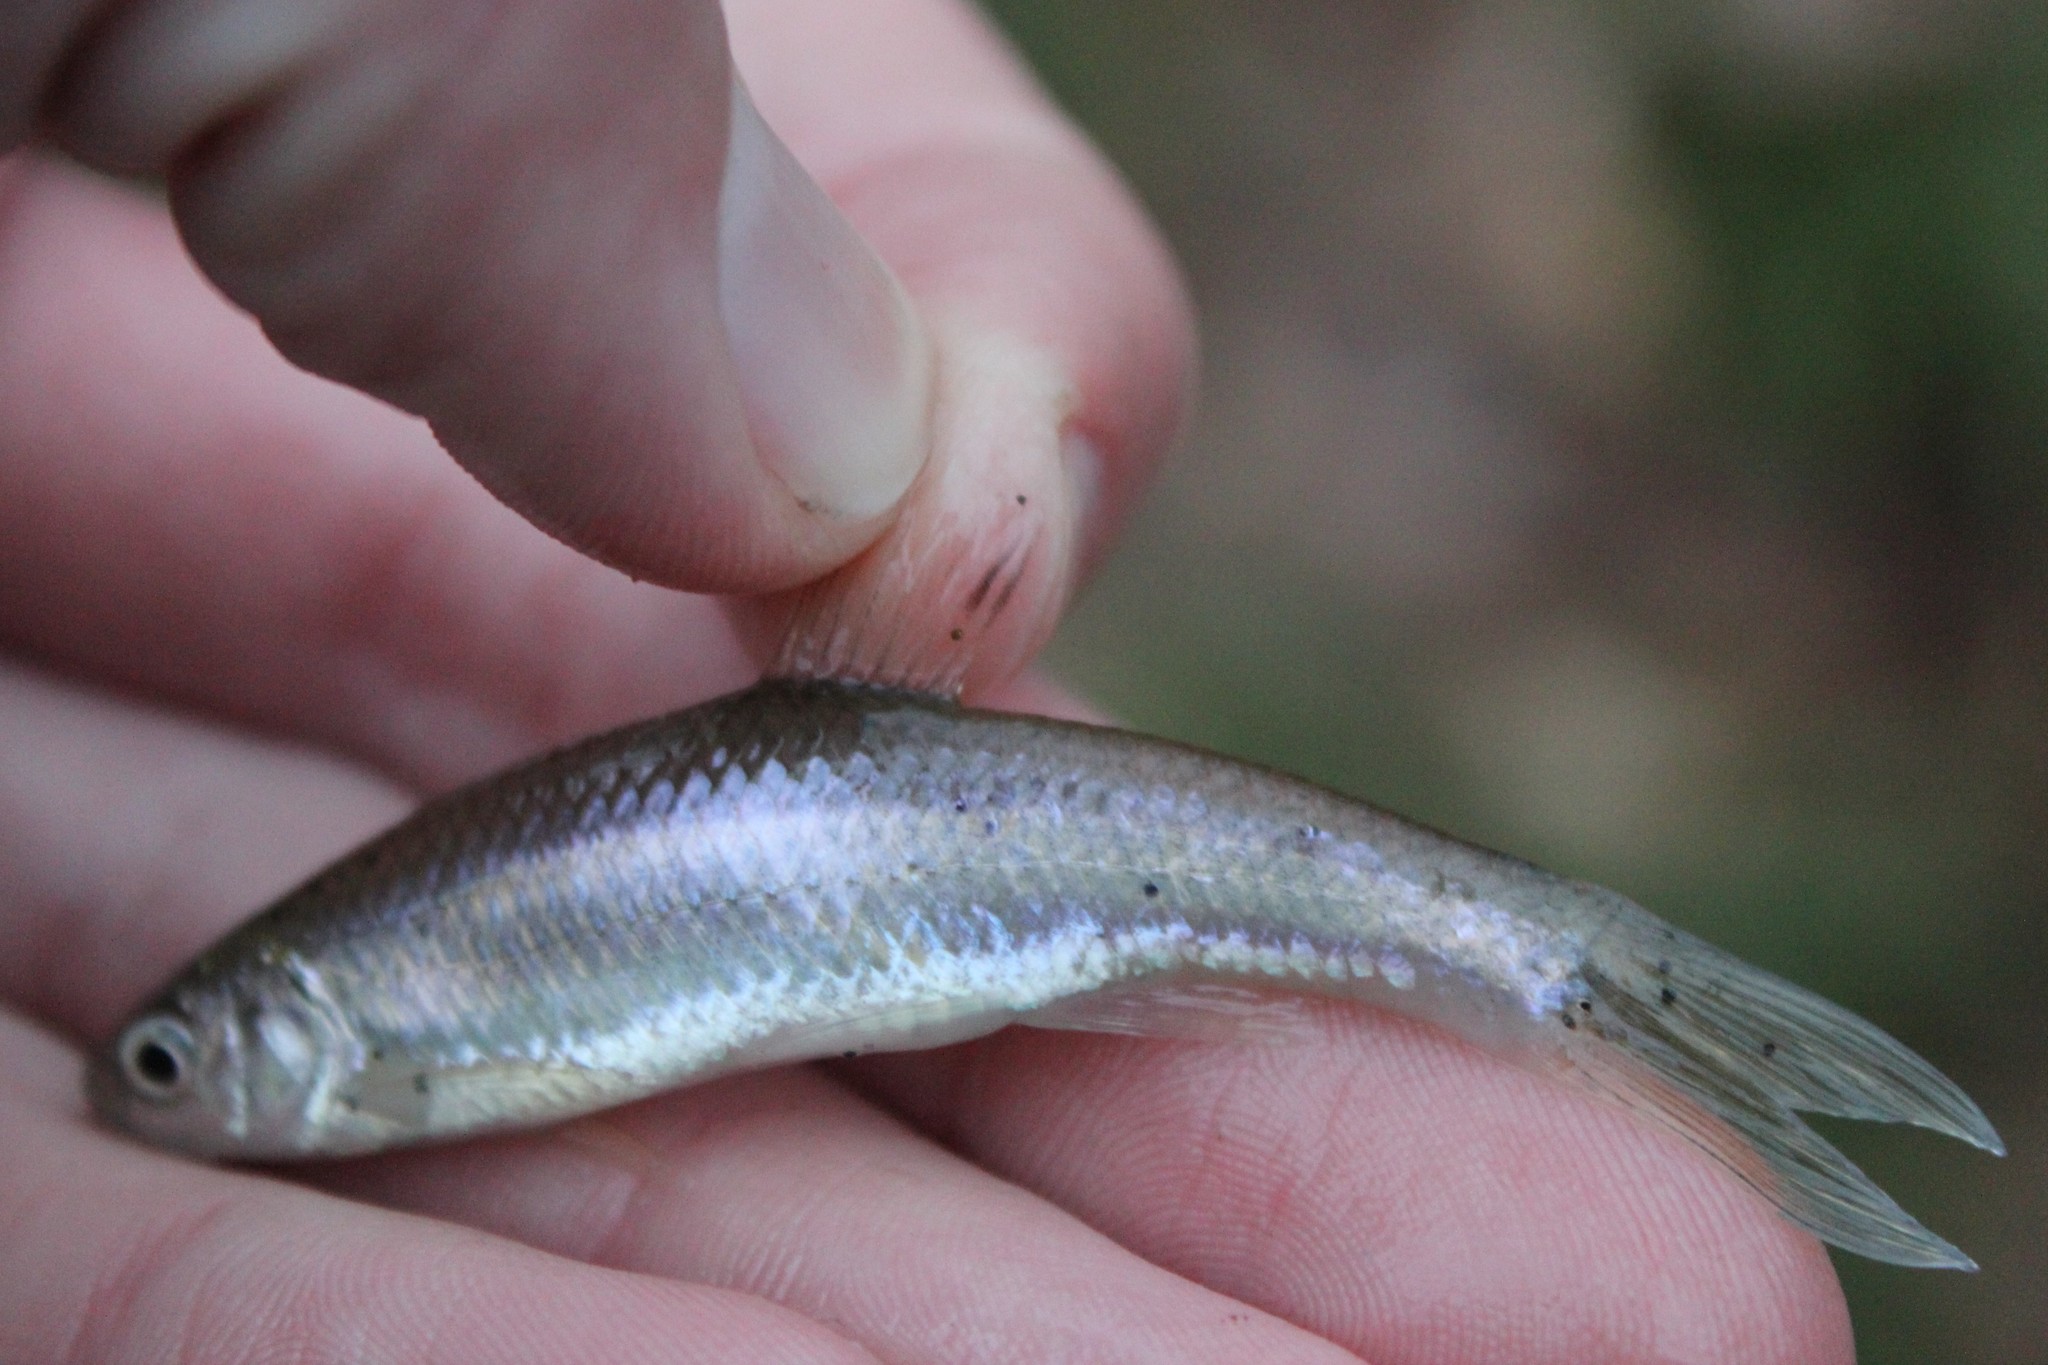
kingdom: Animalia
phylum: Chordata
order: Cypriniformes
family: Cyprinidae
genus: Cyprinella
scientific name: Cyprinella spiloptera
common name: Spotfin shiner
